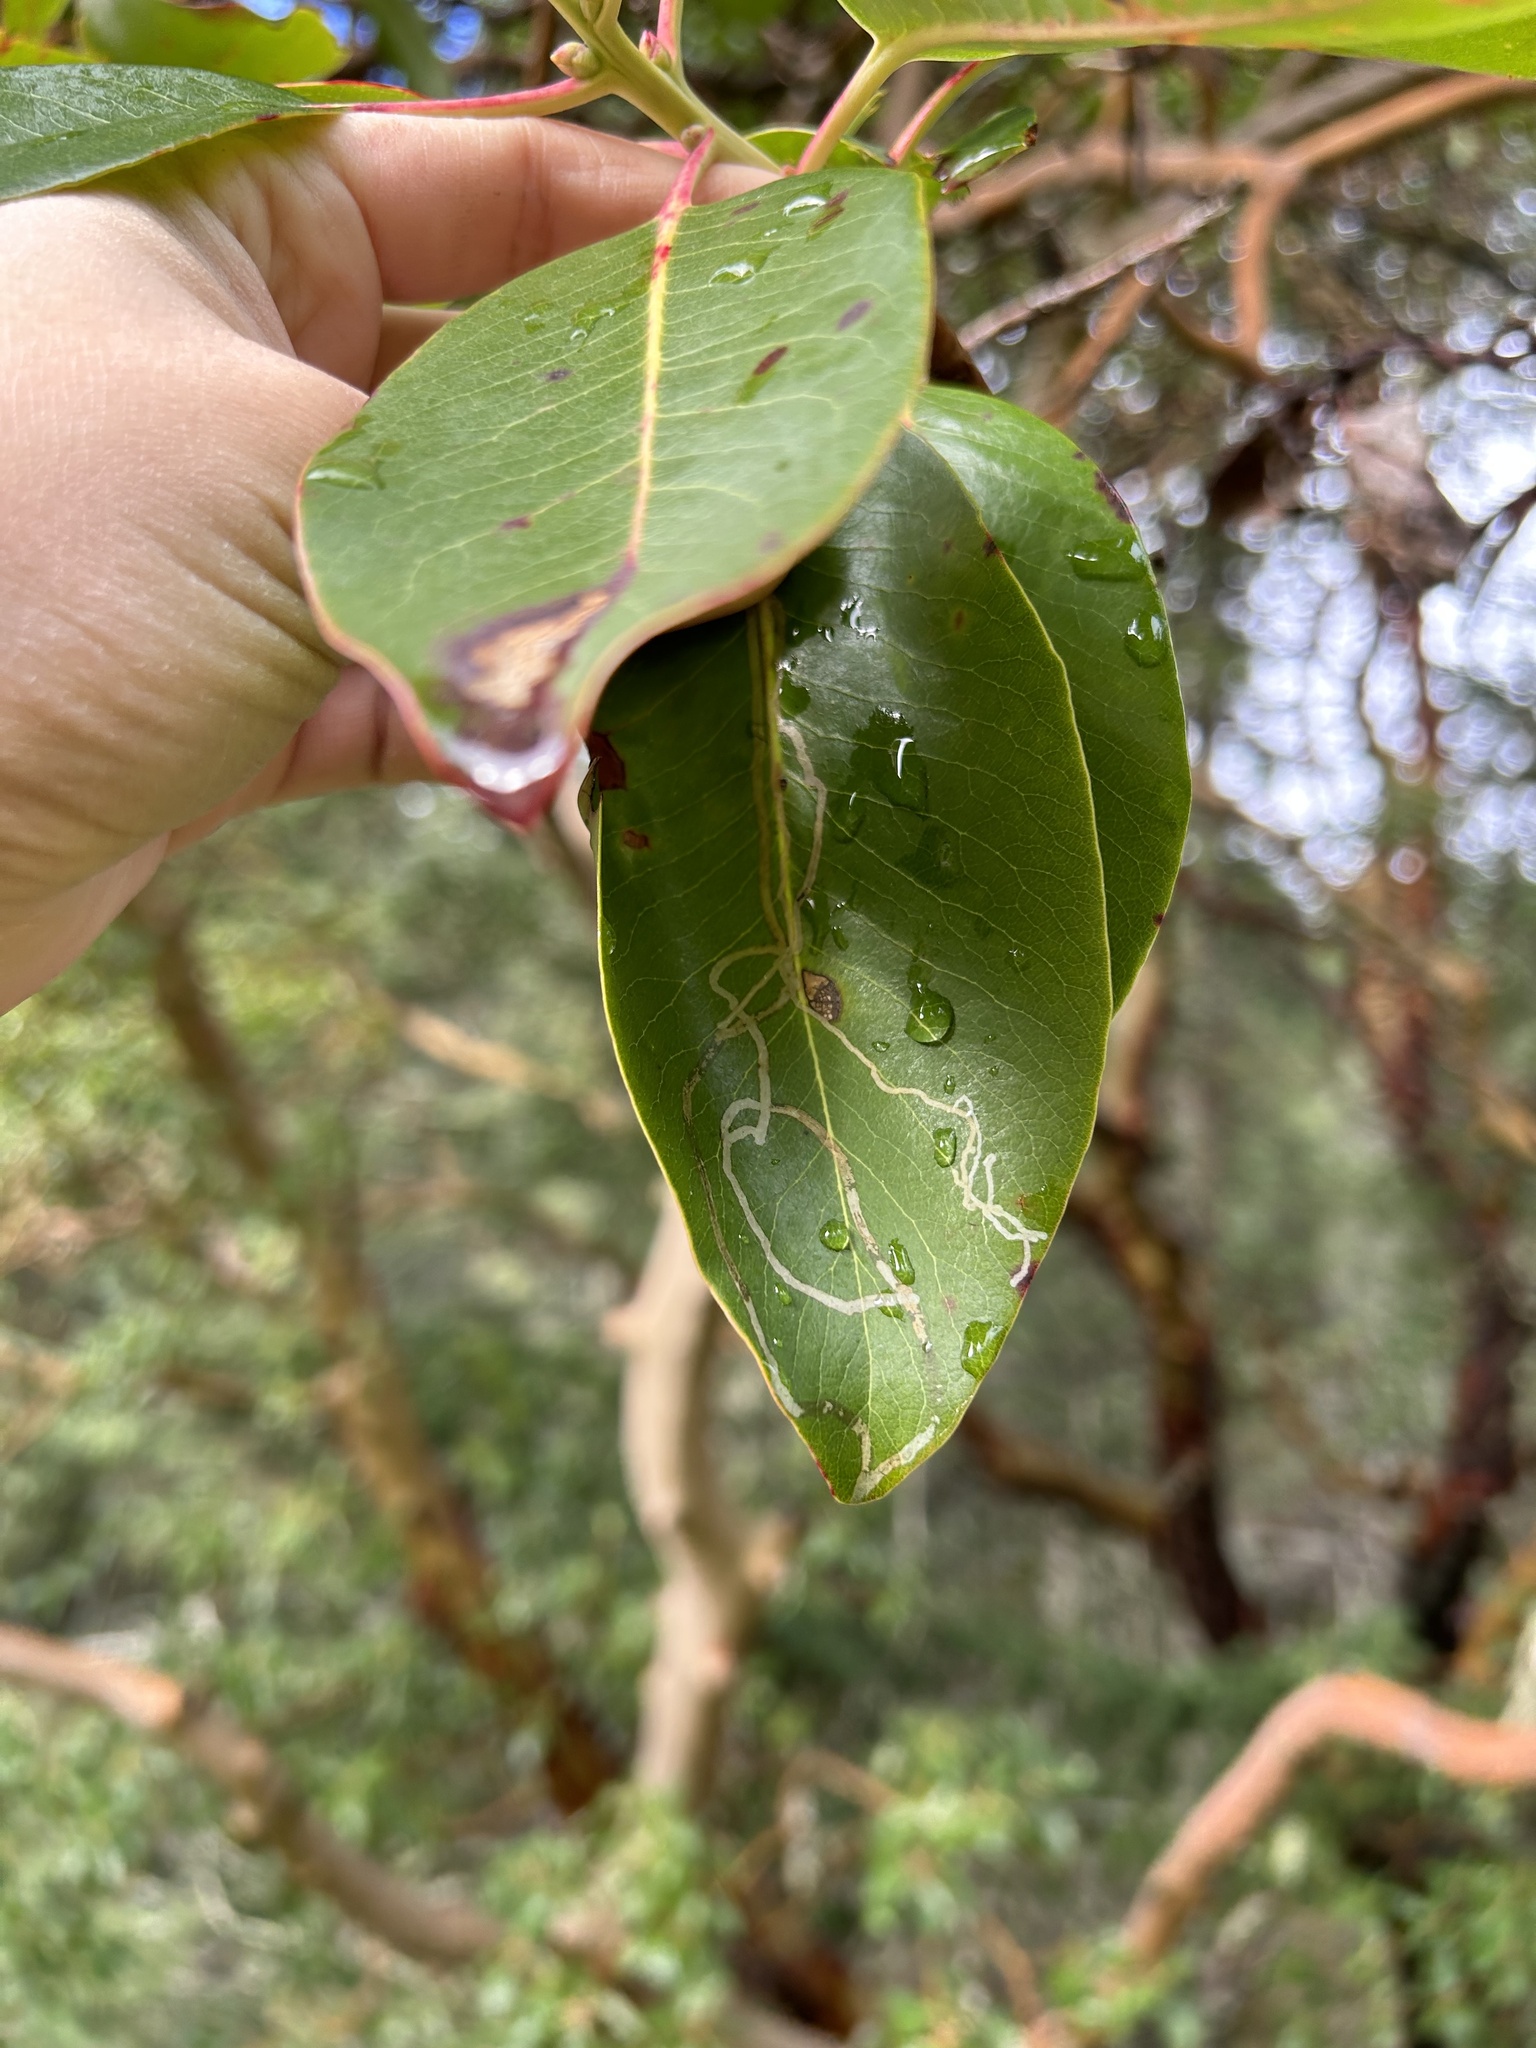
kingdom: Animalia
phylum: Arthropoda
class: Insecta
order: Lepidoptera
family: Gracillariidae
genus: Marmara
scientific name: Marmara arbutiella
